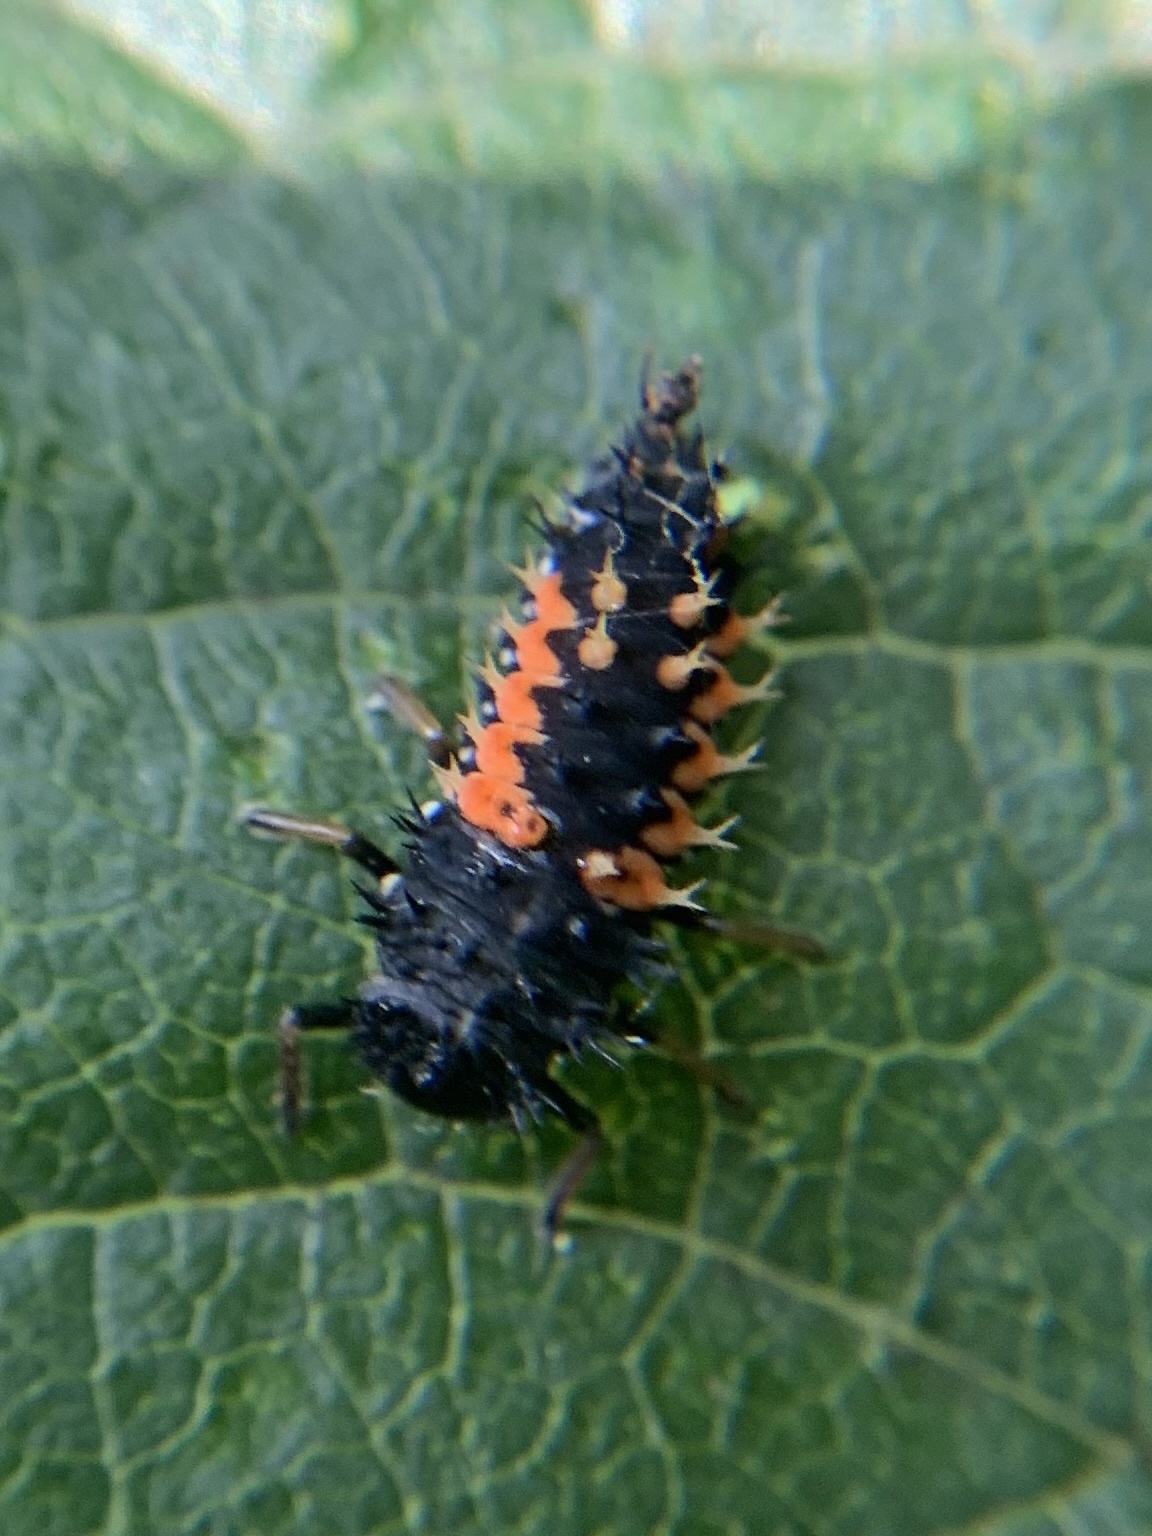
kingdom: Animalia
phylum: Arthropoda
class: Insecta
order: Coleoptera
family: Coccinellidae
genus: Harmonia
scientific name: Harmonia axyridis
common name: Harlequin ladybird
